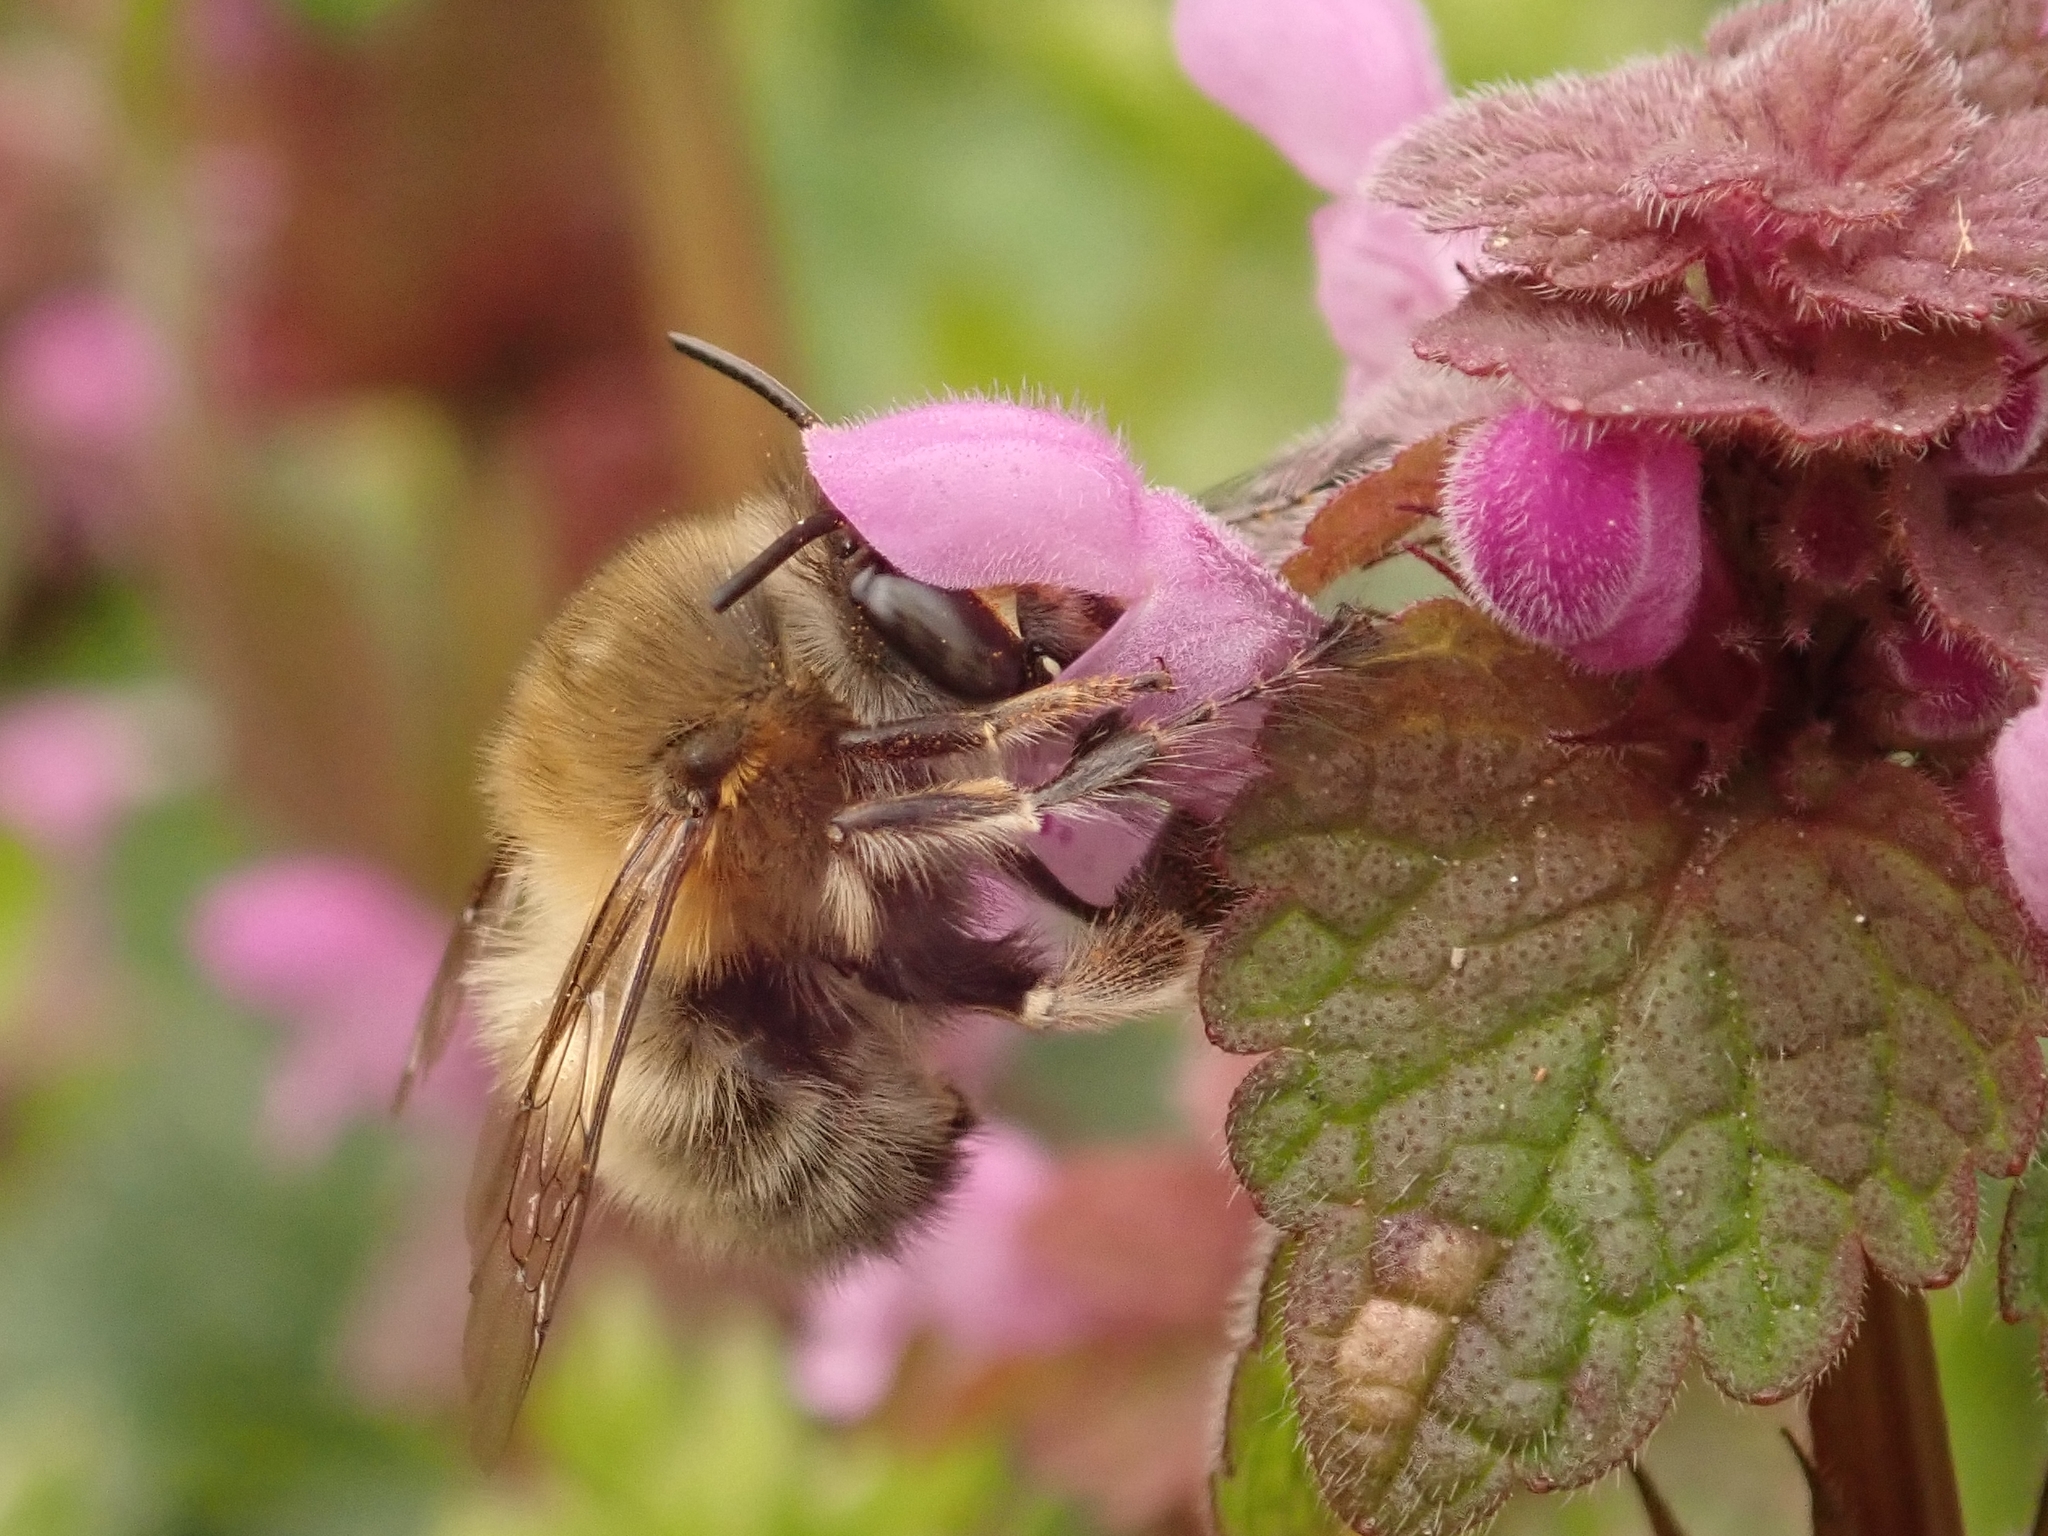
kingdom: Animalia
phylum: Arthropoda
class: Insecta
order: Hymenoptera
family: Apidae
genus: Anthophora
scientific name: Anthophora plumipes
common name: Hairy-footed flower bee
